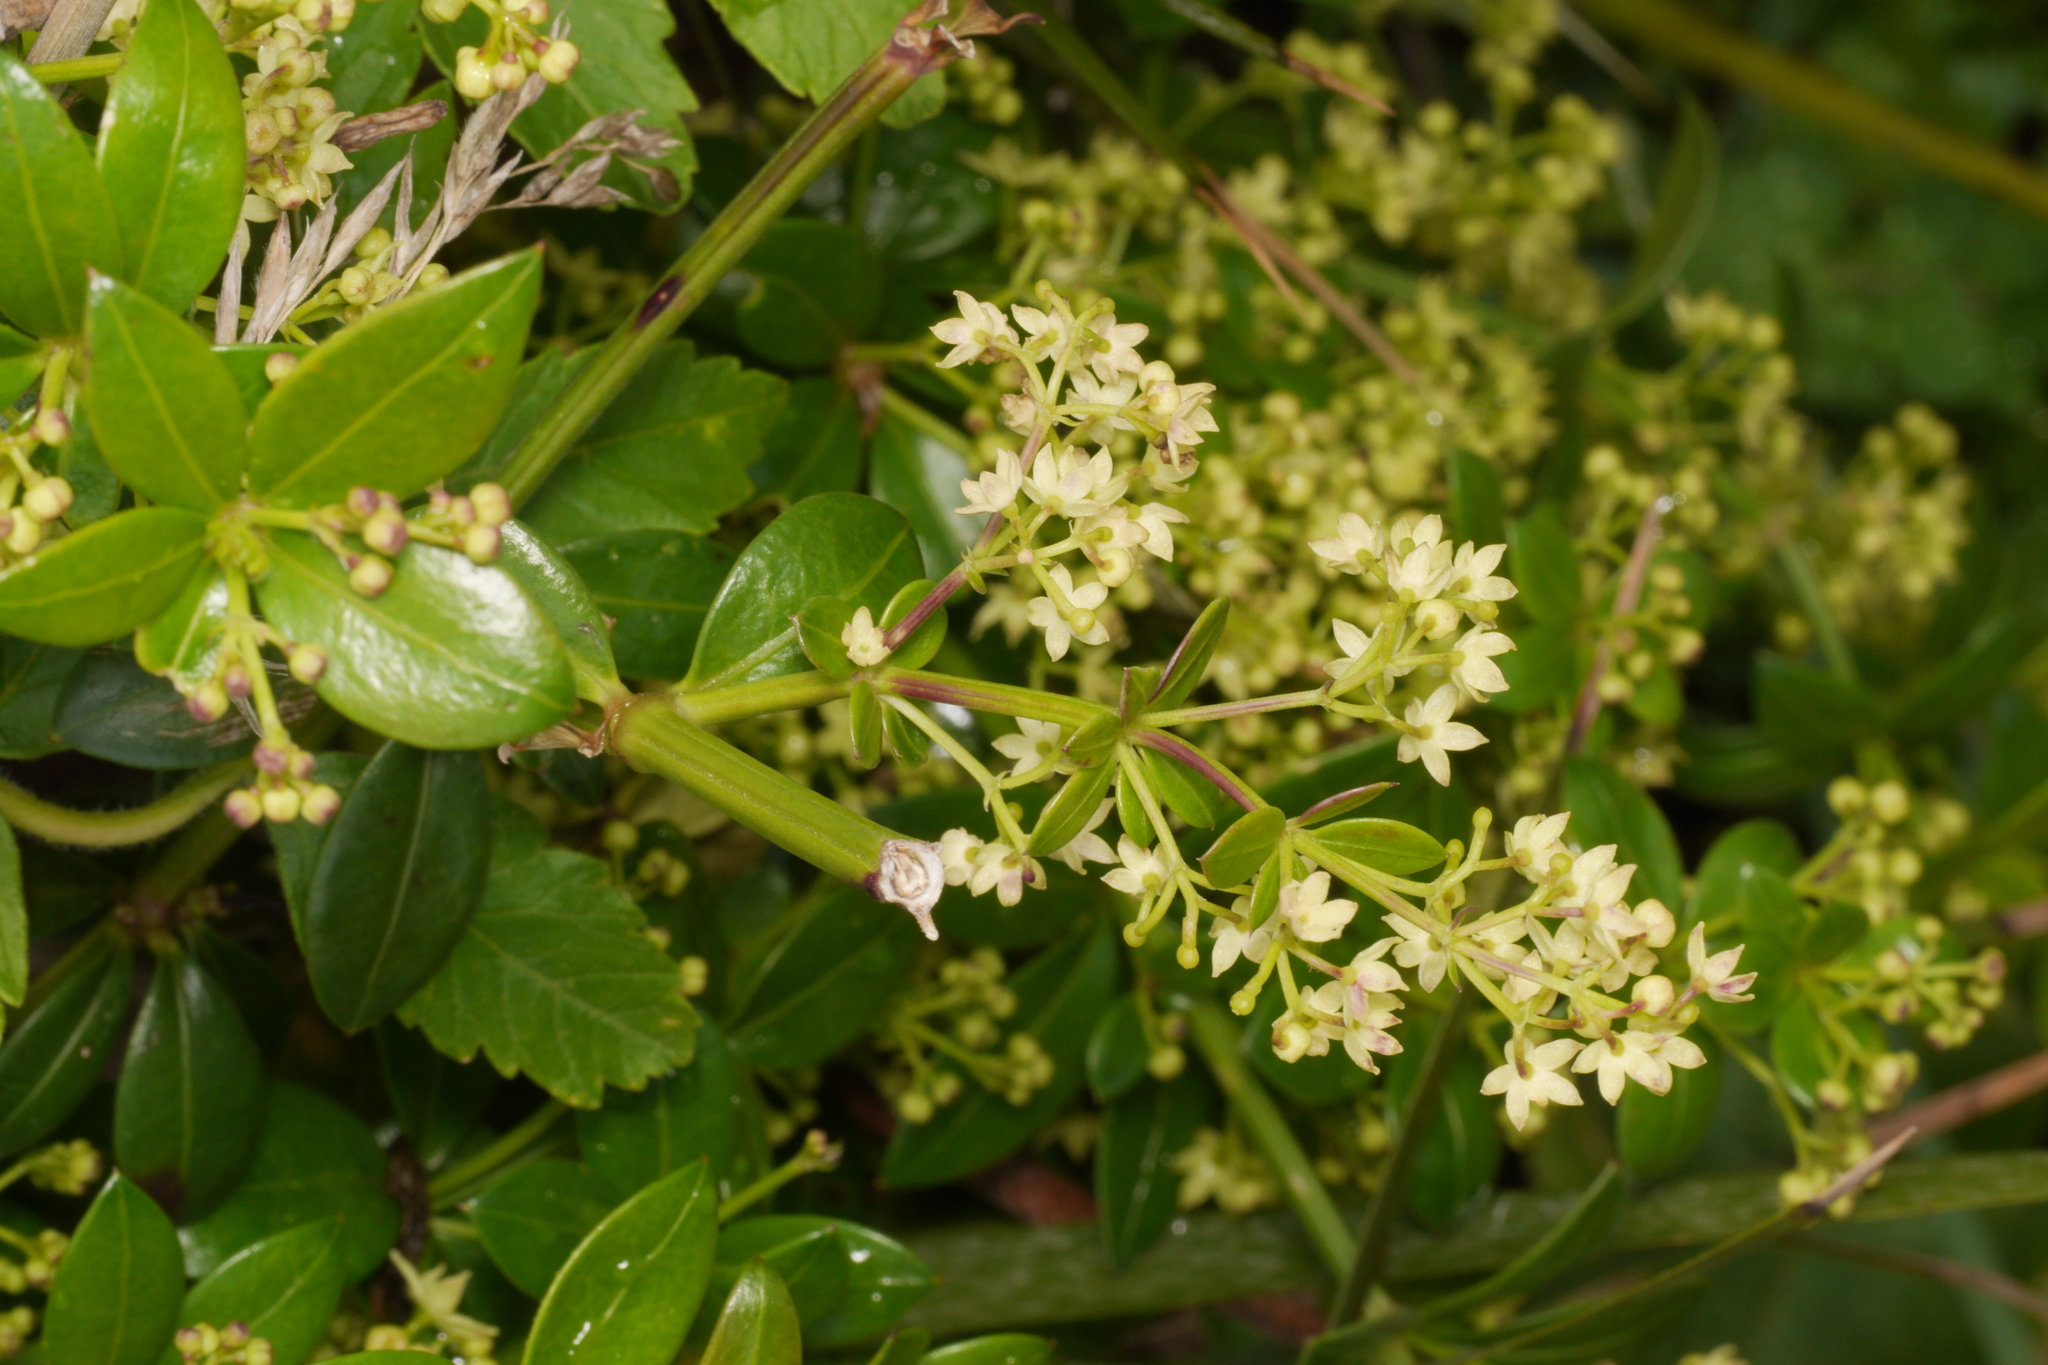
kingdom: Plantae
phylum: Tracheophyta
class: Magnoliopsida
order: Gentianales
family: Rubiaceae
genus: Rubia
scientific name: Rubia peregrina
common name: Wild madder
